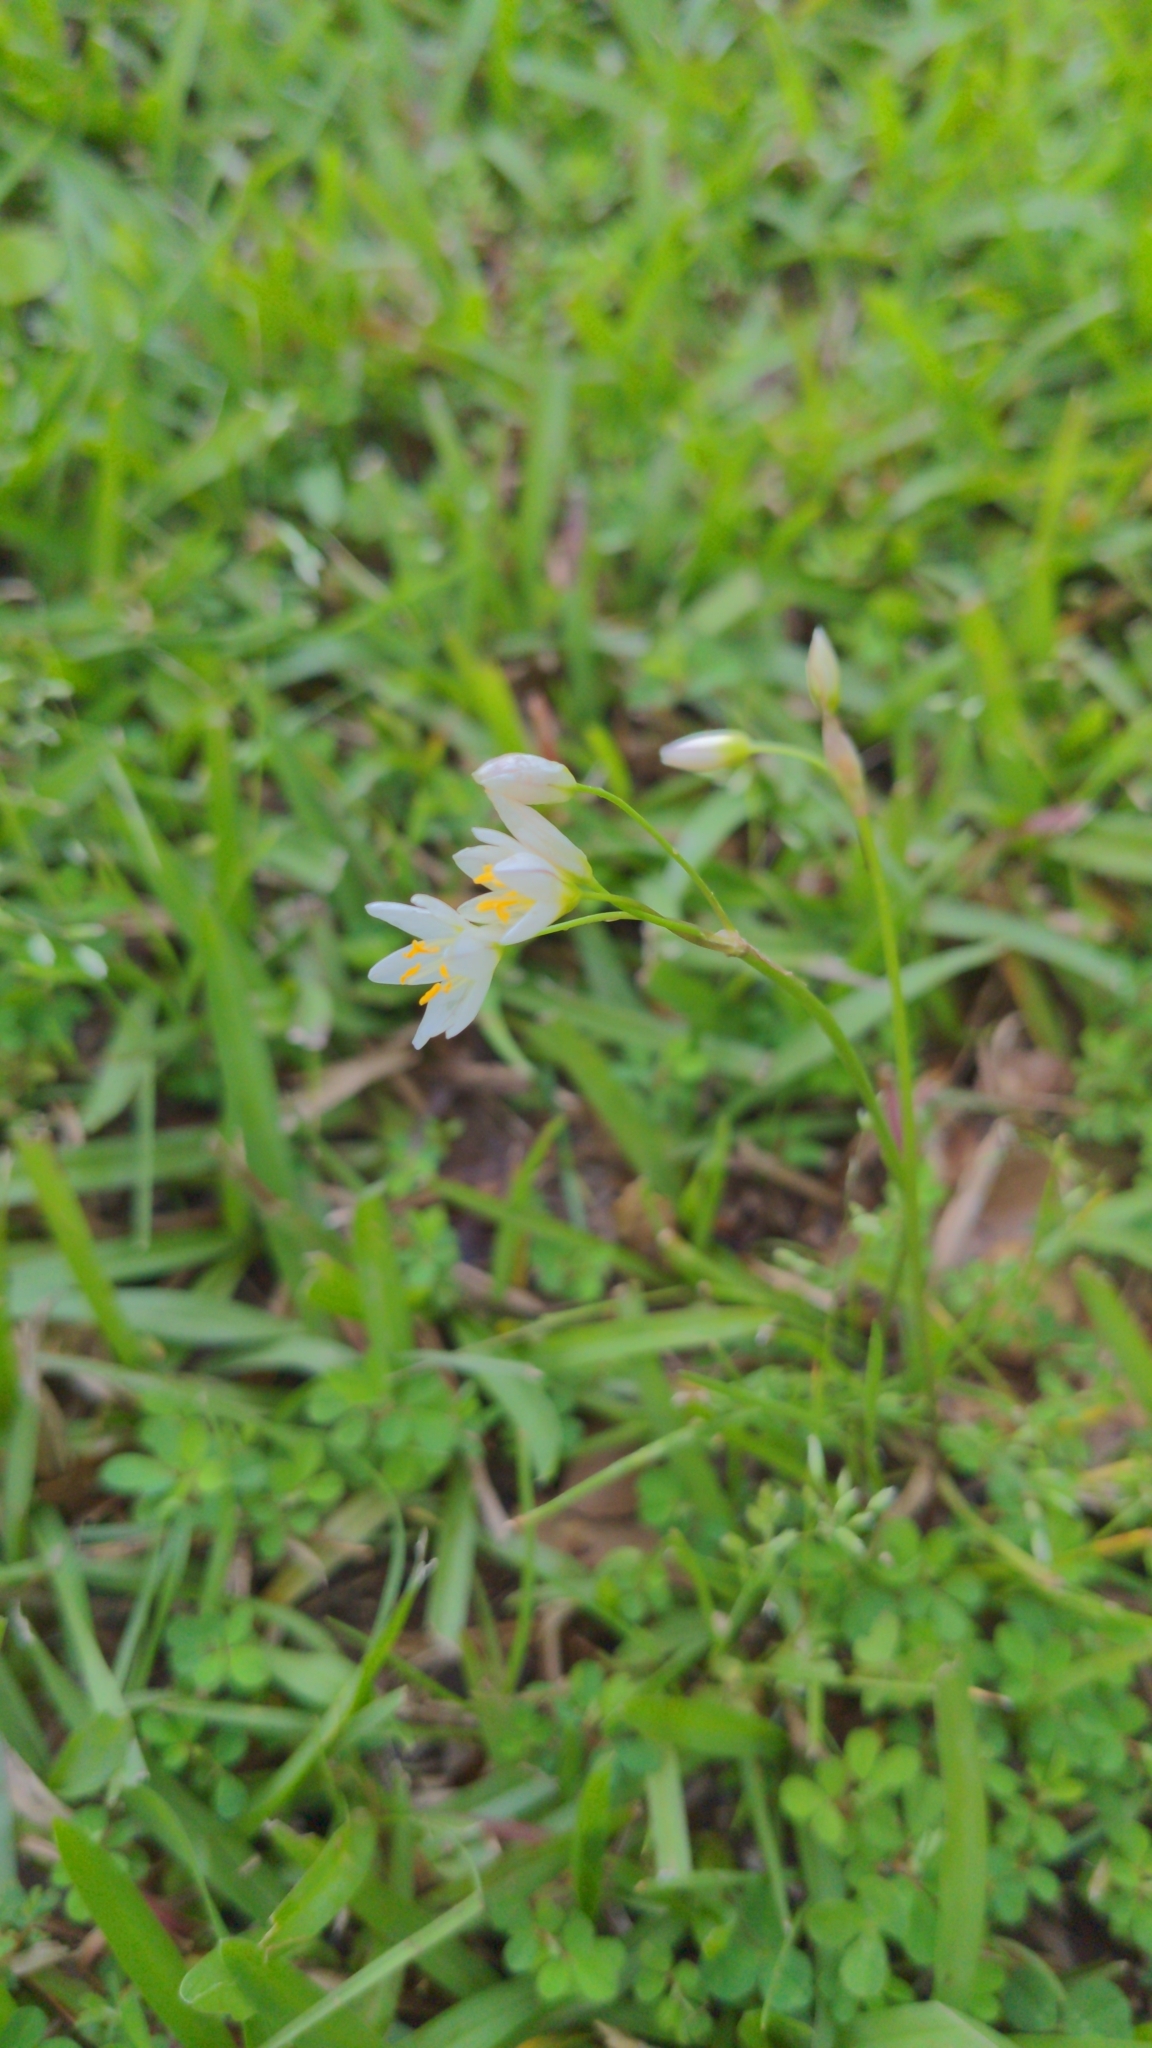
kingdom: Plantae
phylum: Tracheophyta
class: Liliopsida
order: Asparagales
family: Amaryllidaceae
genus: Nothoscordum
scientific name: Nothoscordum bivalve
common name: Crow-poison
